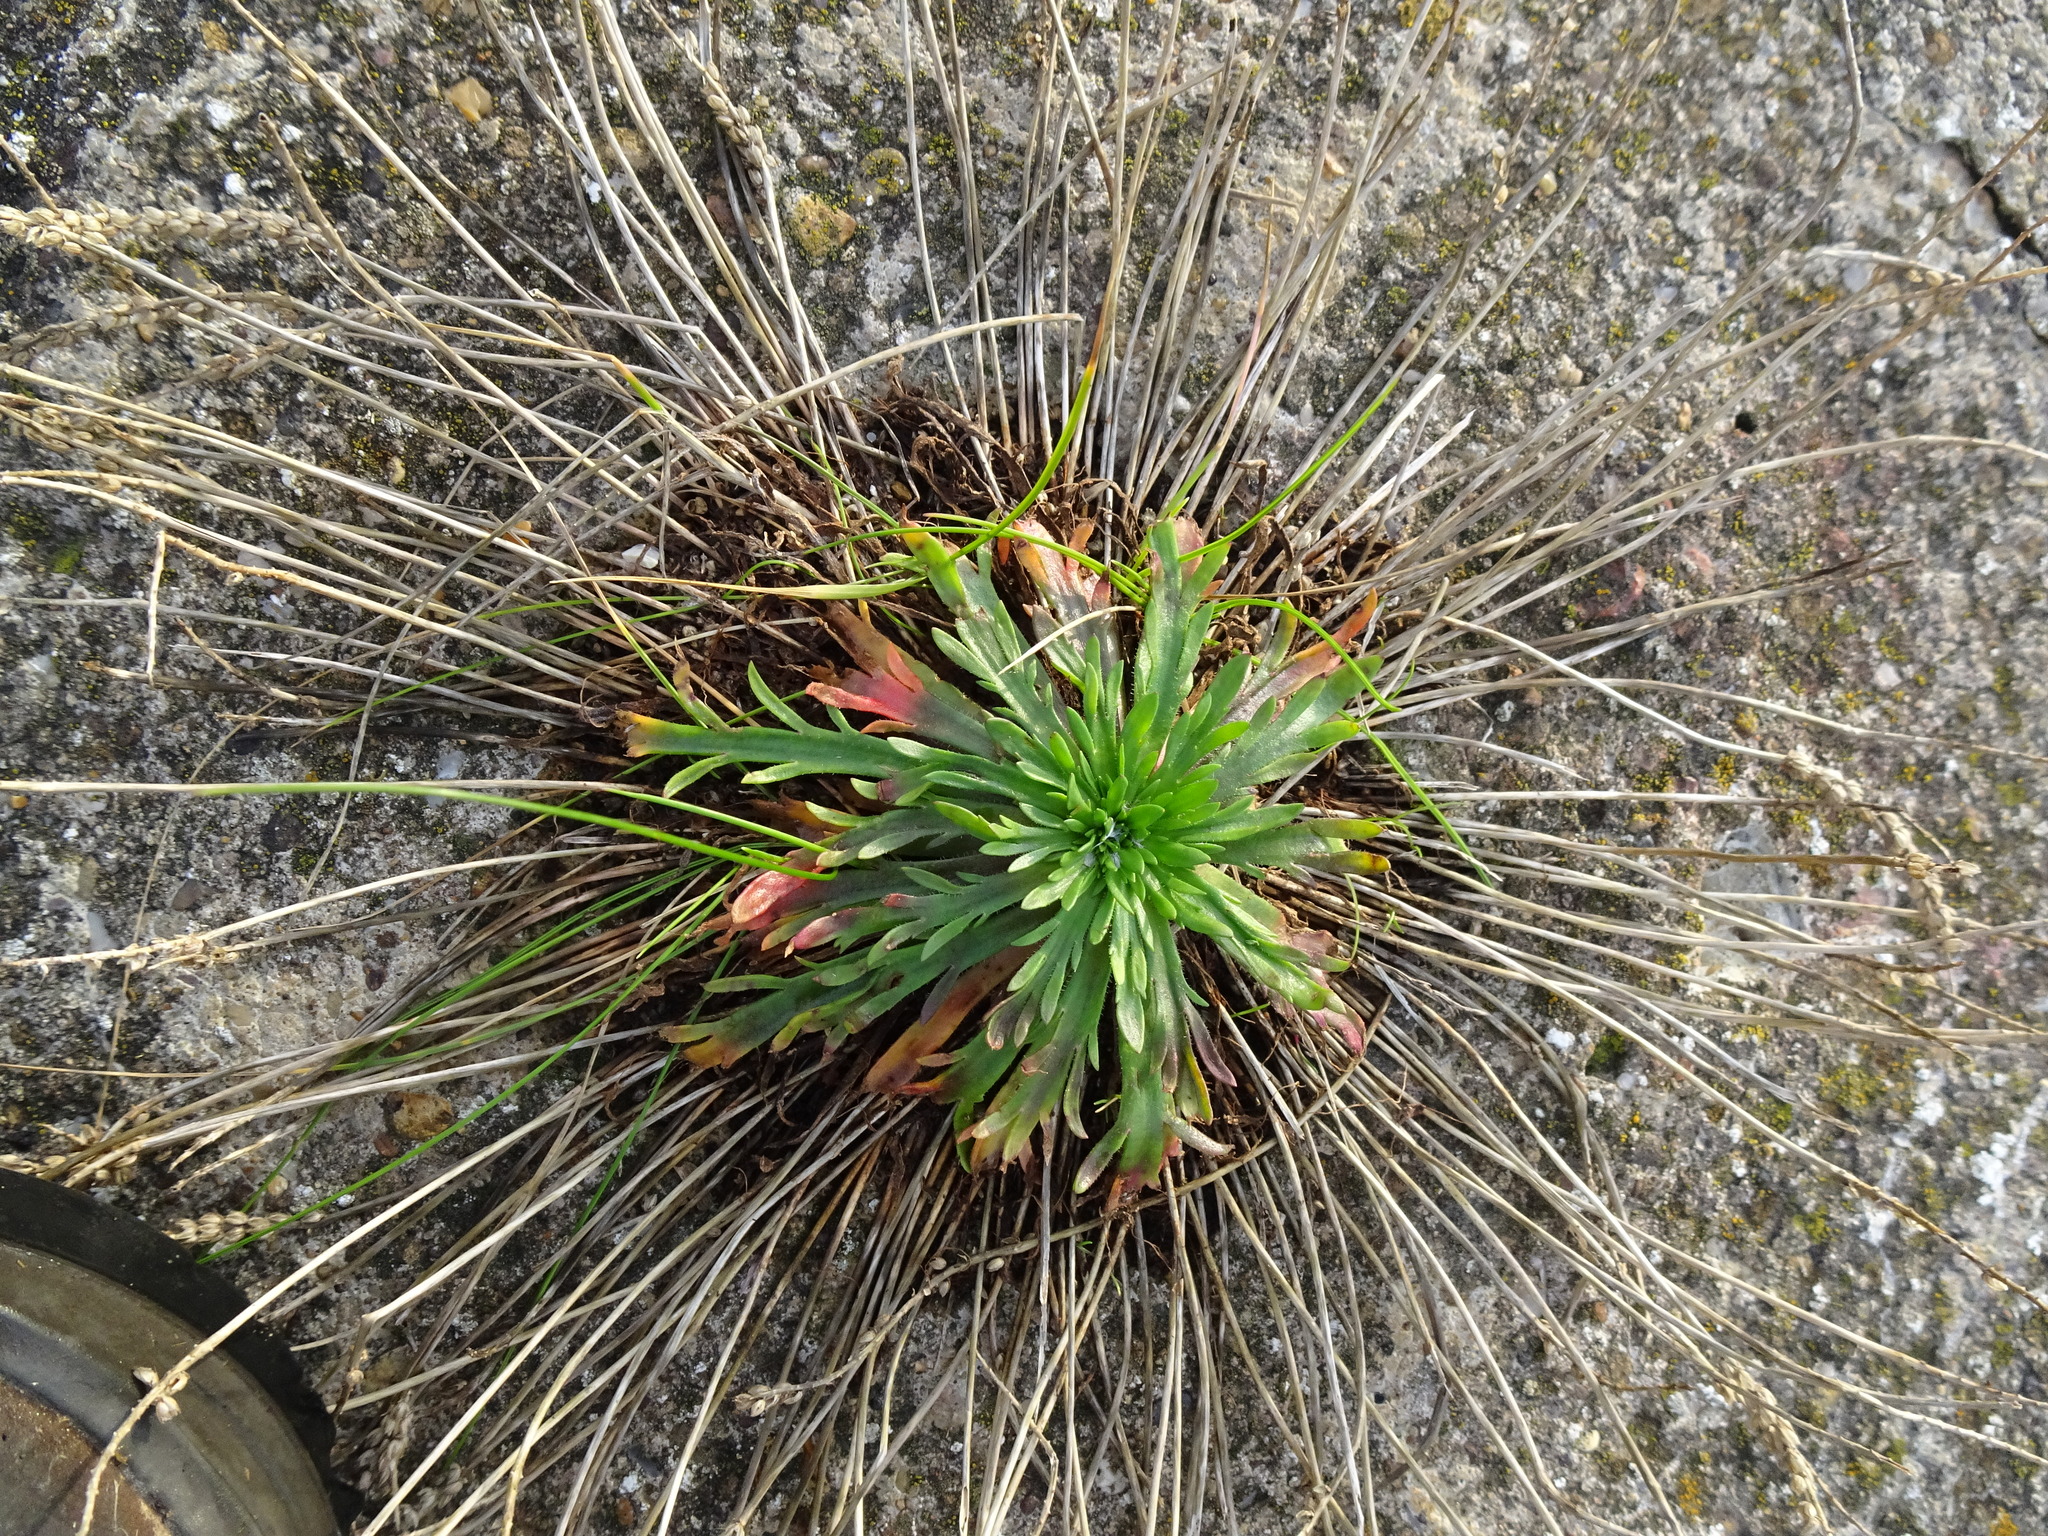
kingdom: Plantae
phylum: Tracheophyta
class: Magnoliopsida
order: Lamiales
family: Plantaginaceae
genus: Plantago
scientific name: Plantago coronopus
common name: Buck's-horn plantain
